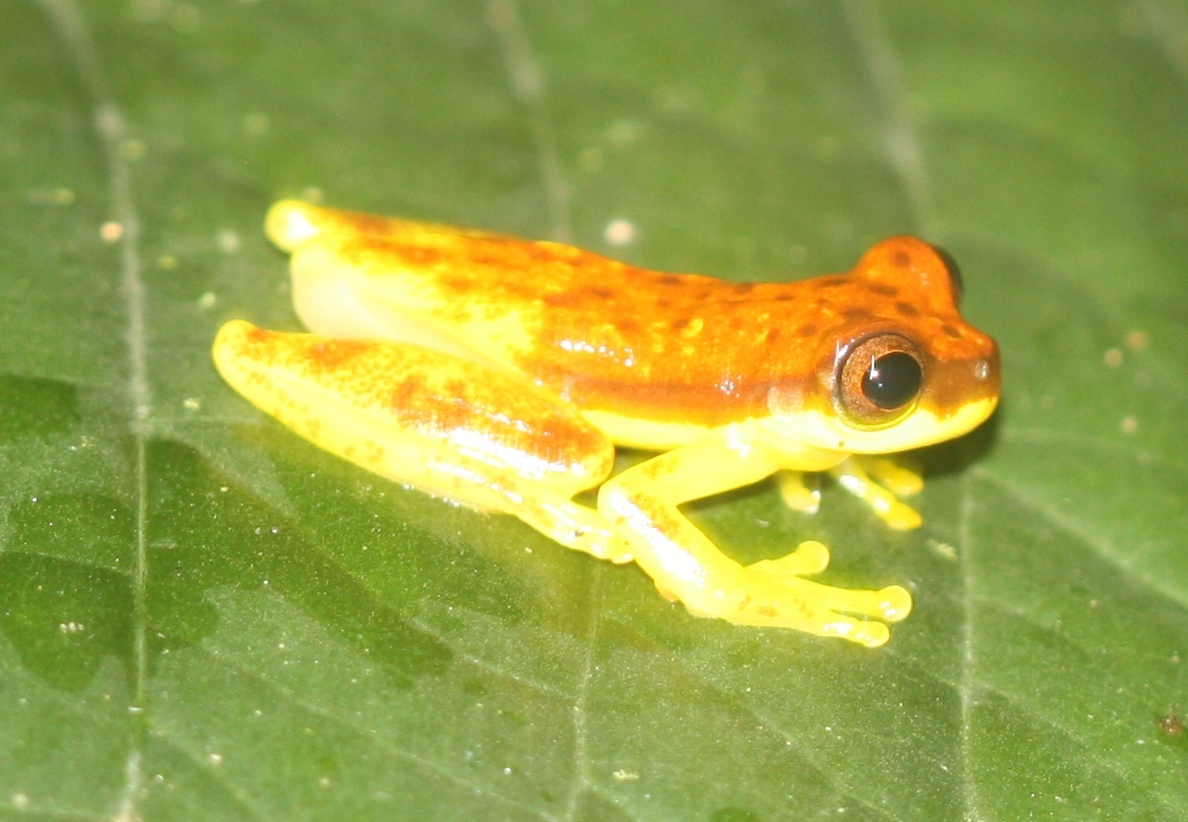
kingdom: Animalia
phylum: Chordata
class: Amphibia
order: Anura
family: Hylidae
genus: Dendropsophus
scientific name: Dendropsophus rhodopeplus
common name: Red-skirted treefrog
